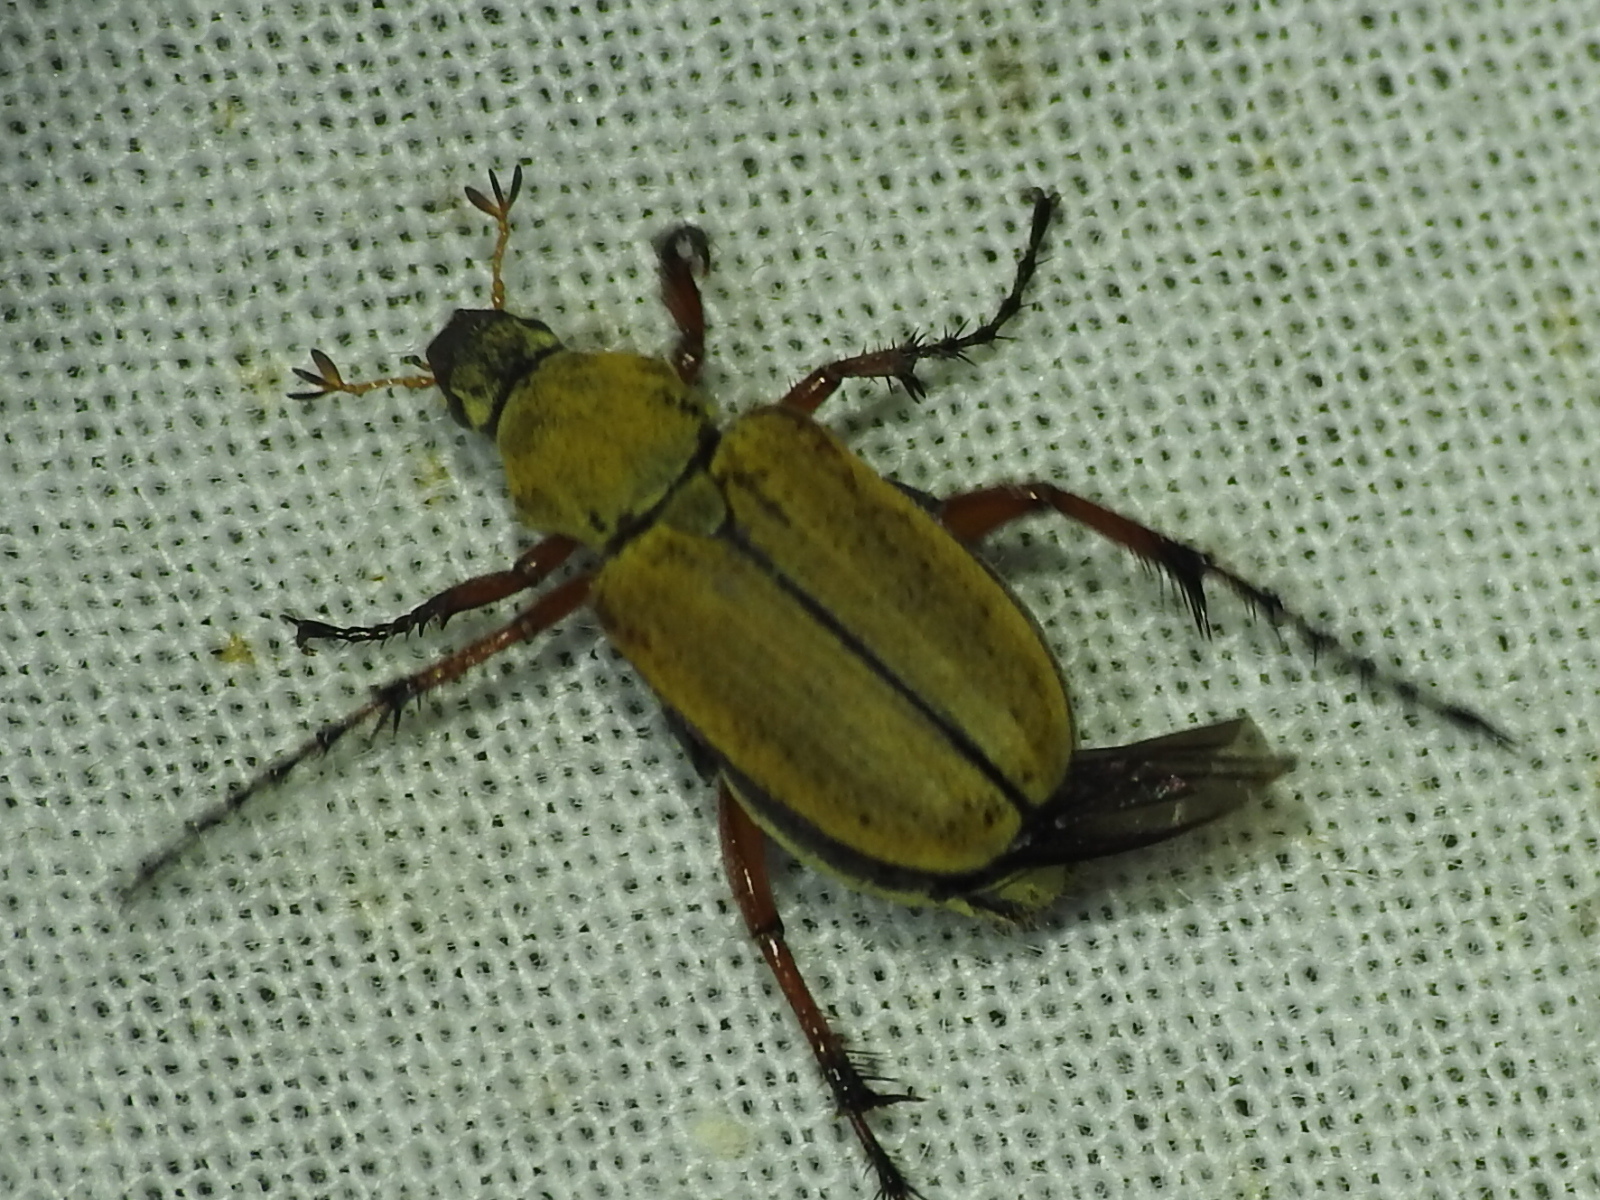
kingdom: Animalia
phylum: Arthropoda
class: Insecta
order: Coleoptera
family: Scarabaeidae
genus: Macrodactylus
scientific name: Macrodactylus subspinosus
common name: American rose chafer
